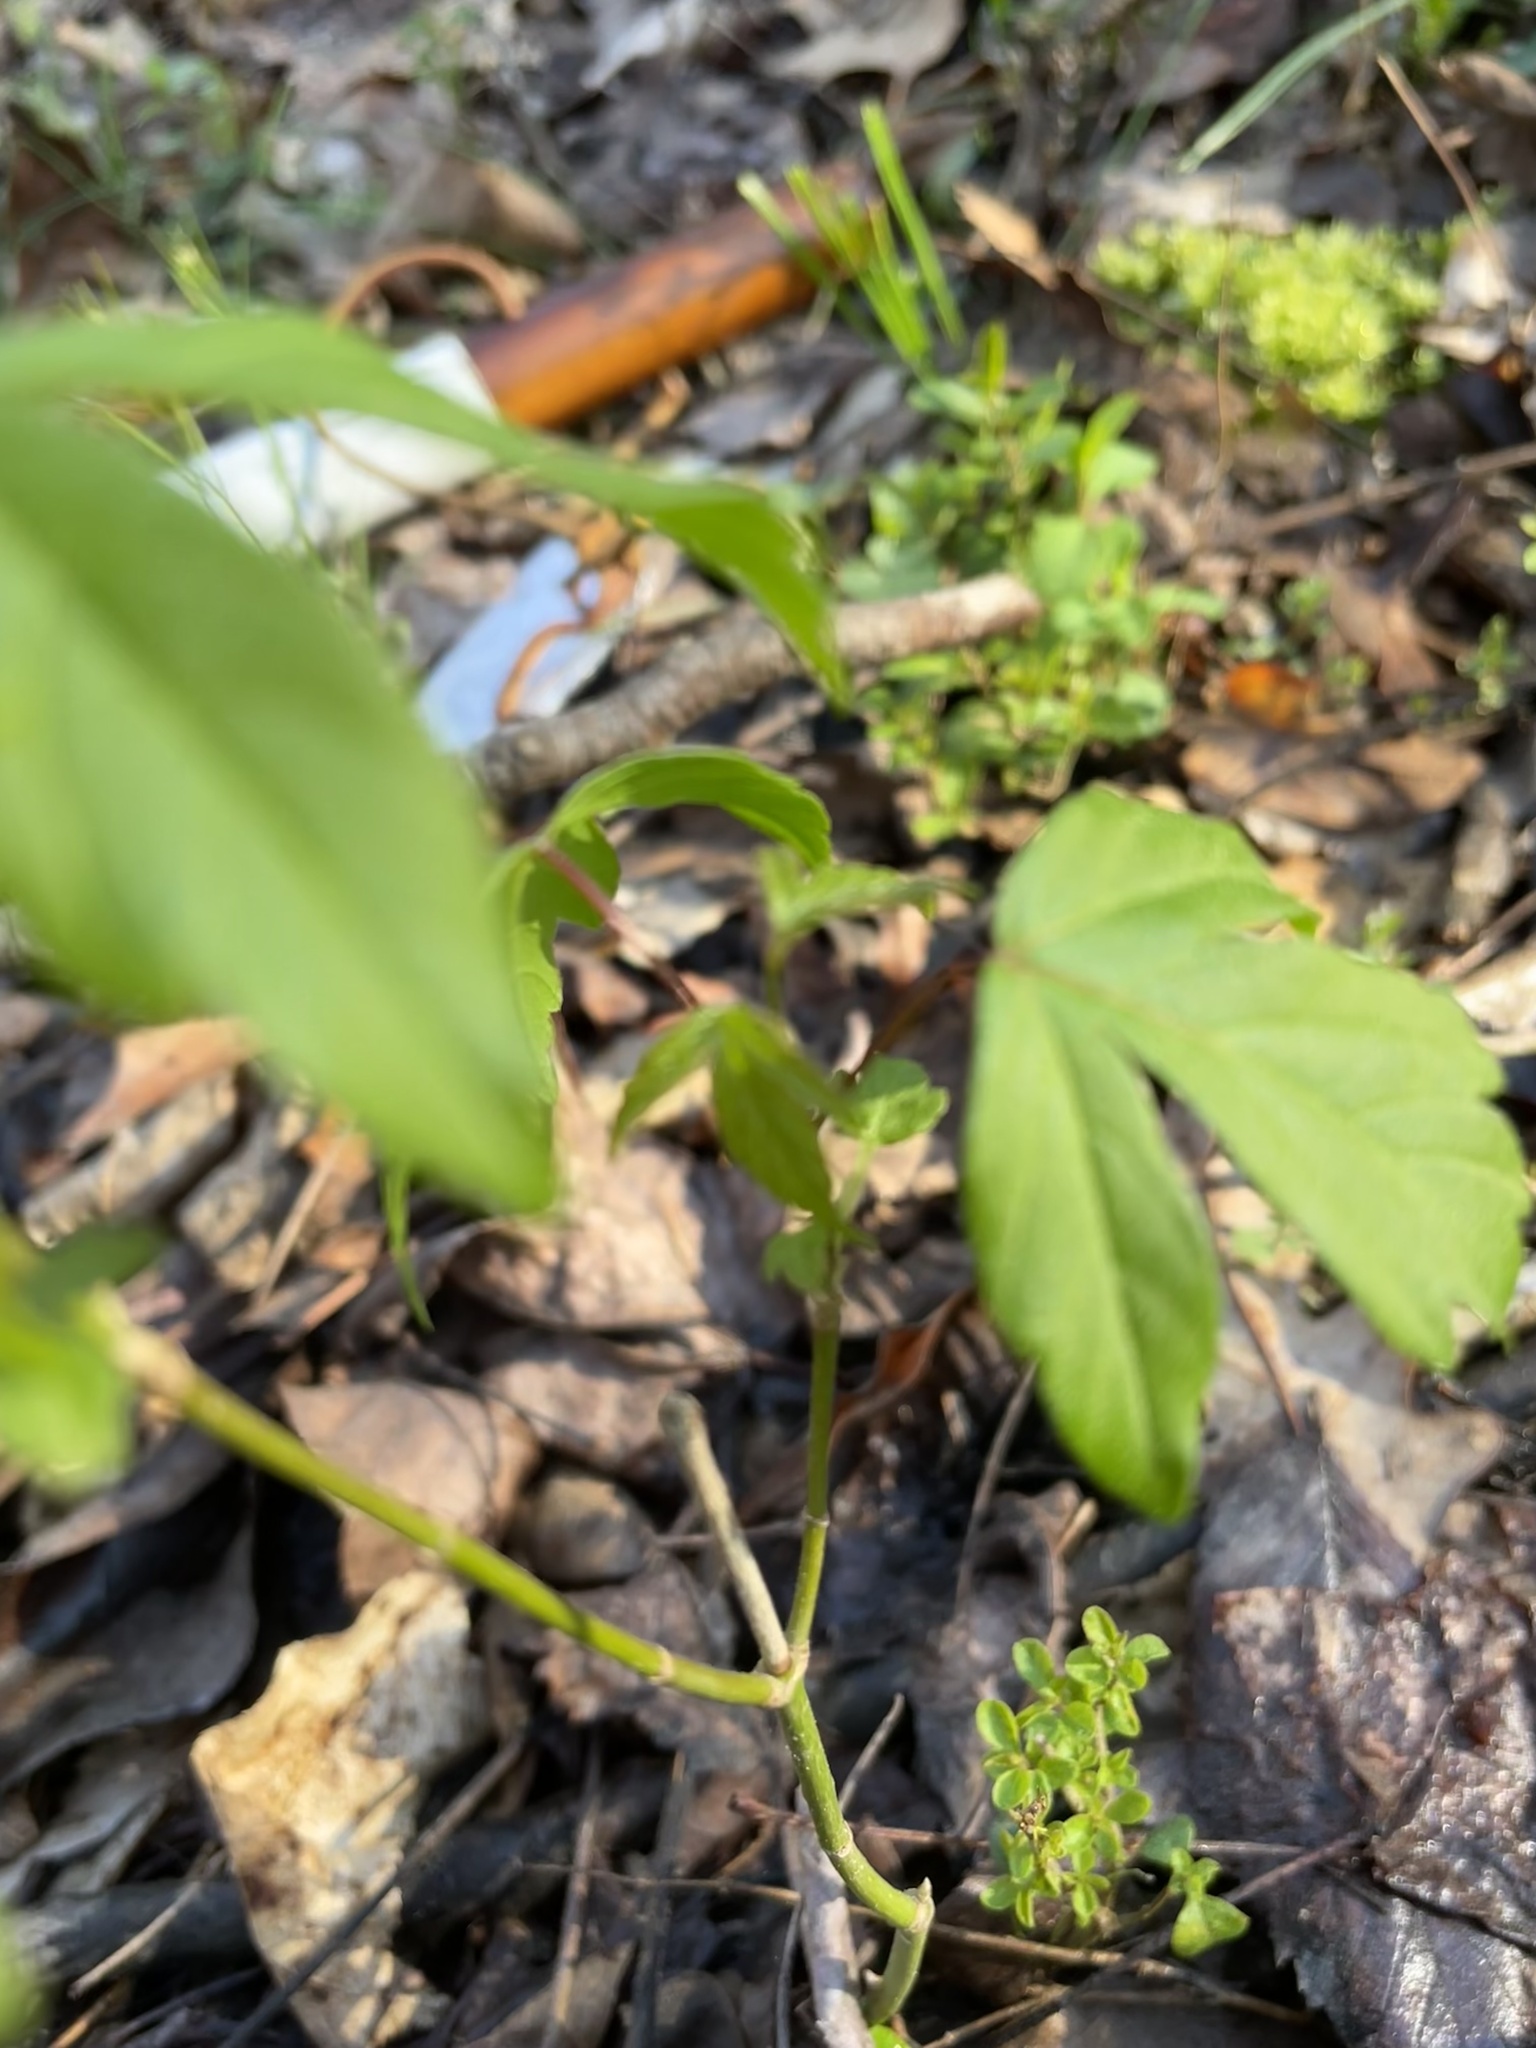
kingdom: Plantae
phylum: Tracheophyta
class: Magnoliopsida
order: Sapindales
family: Sapindaceae
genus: Acer
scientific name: Acer negundo
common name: Ashleaf maple
